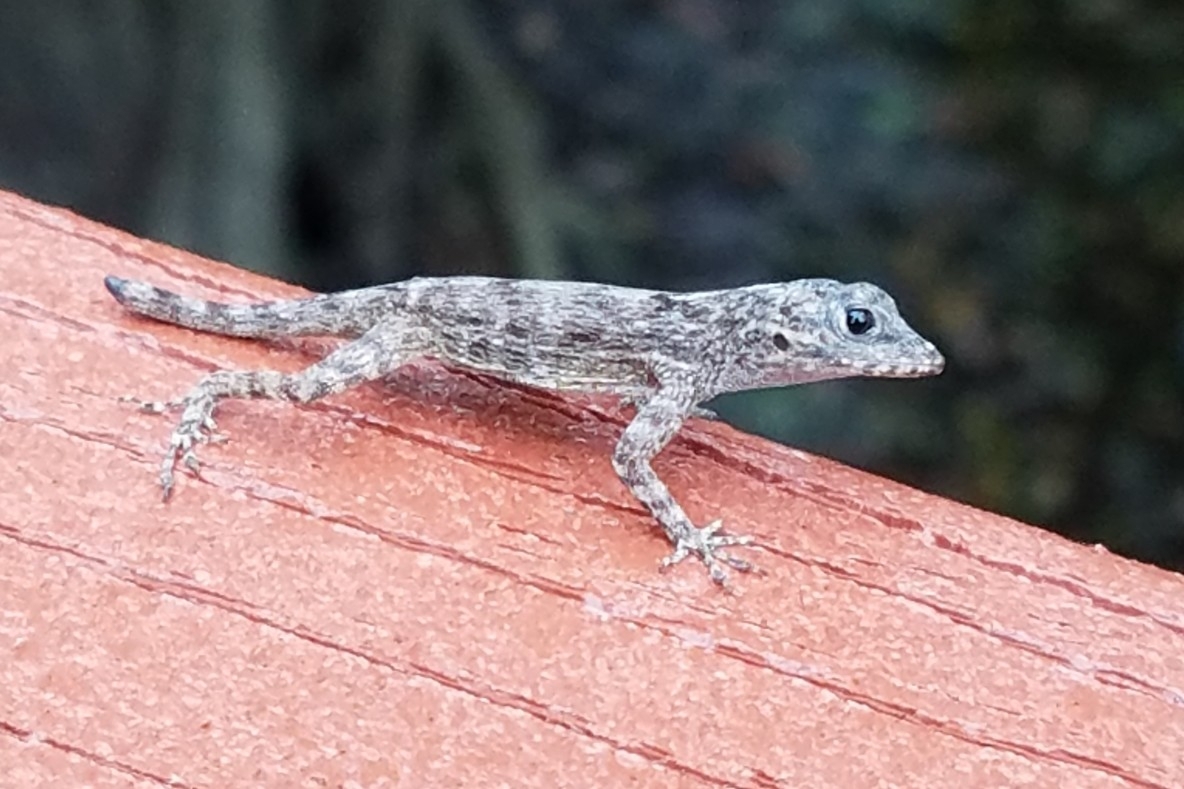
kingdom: Animalia
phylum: Chordata
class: Squamata
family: Dactyloidae
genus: Anolis
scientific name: Anolis distichus
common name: Bark anole
